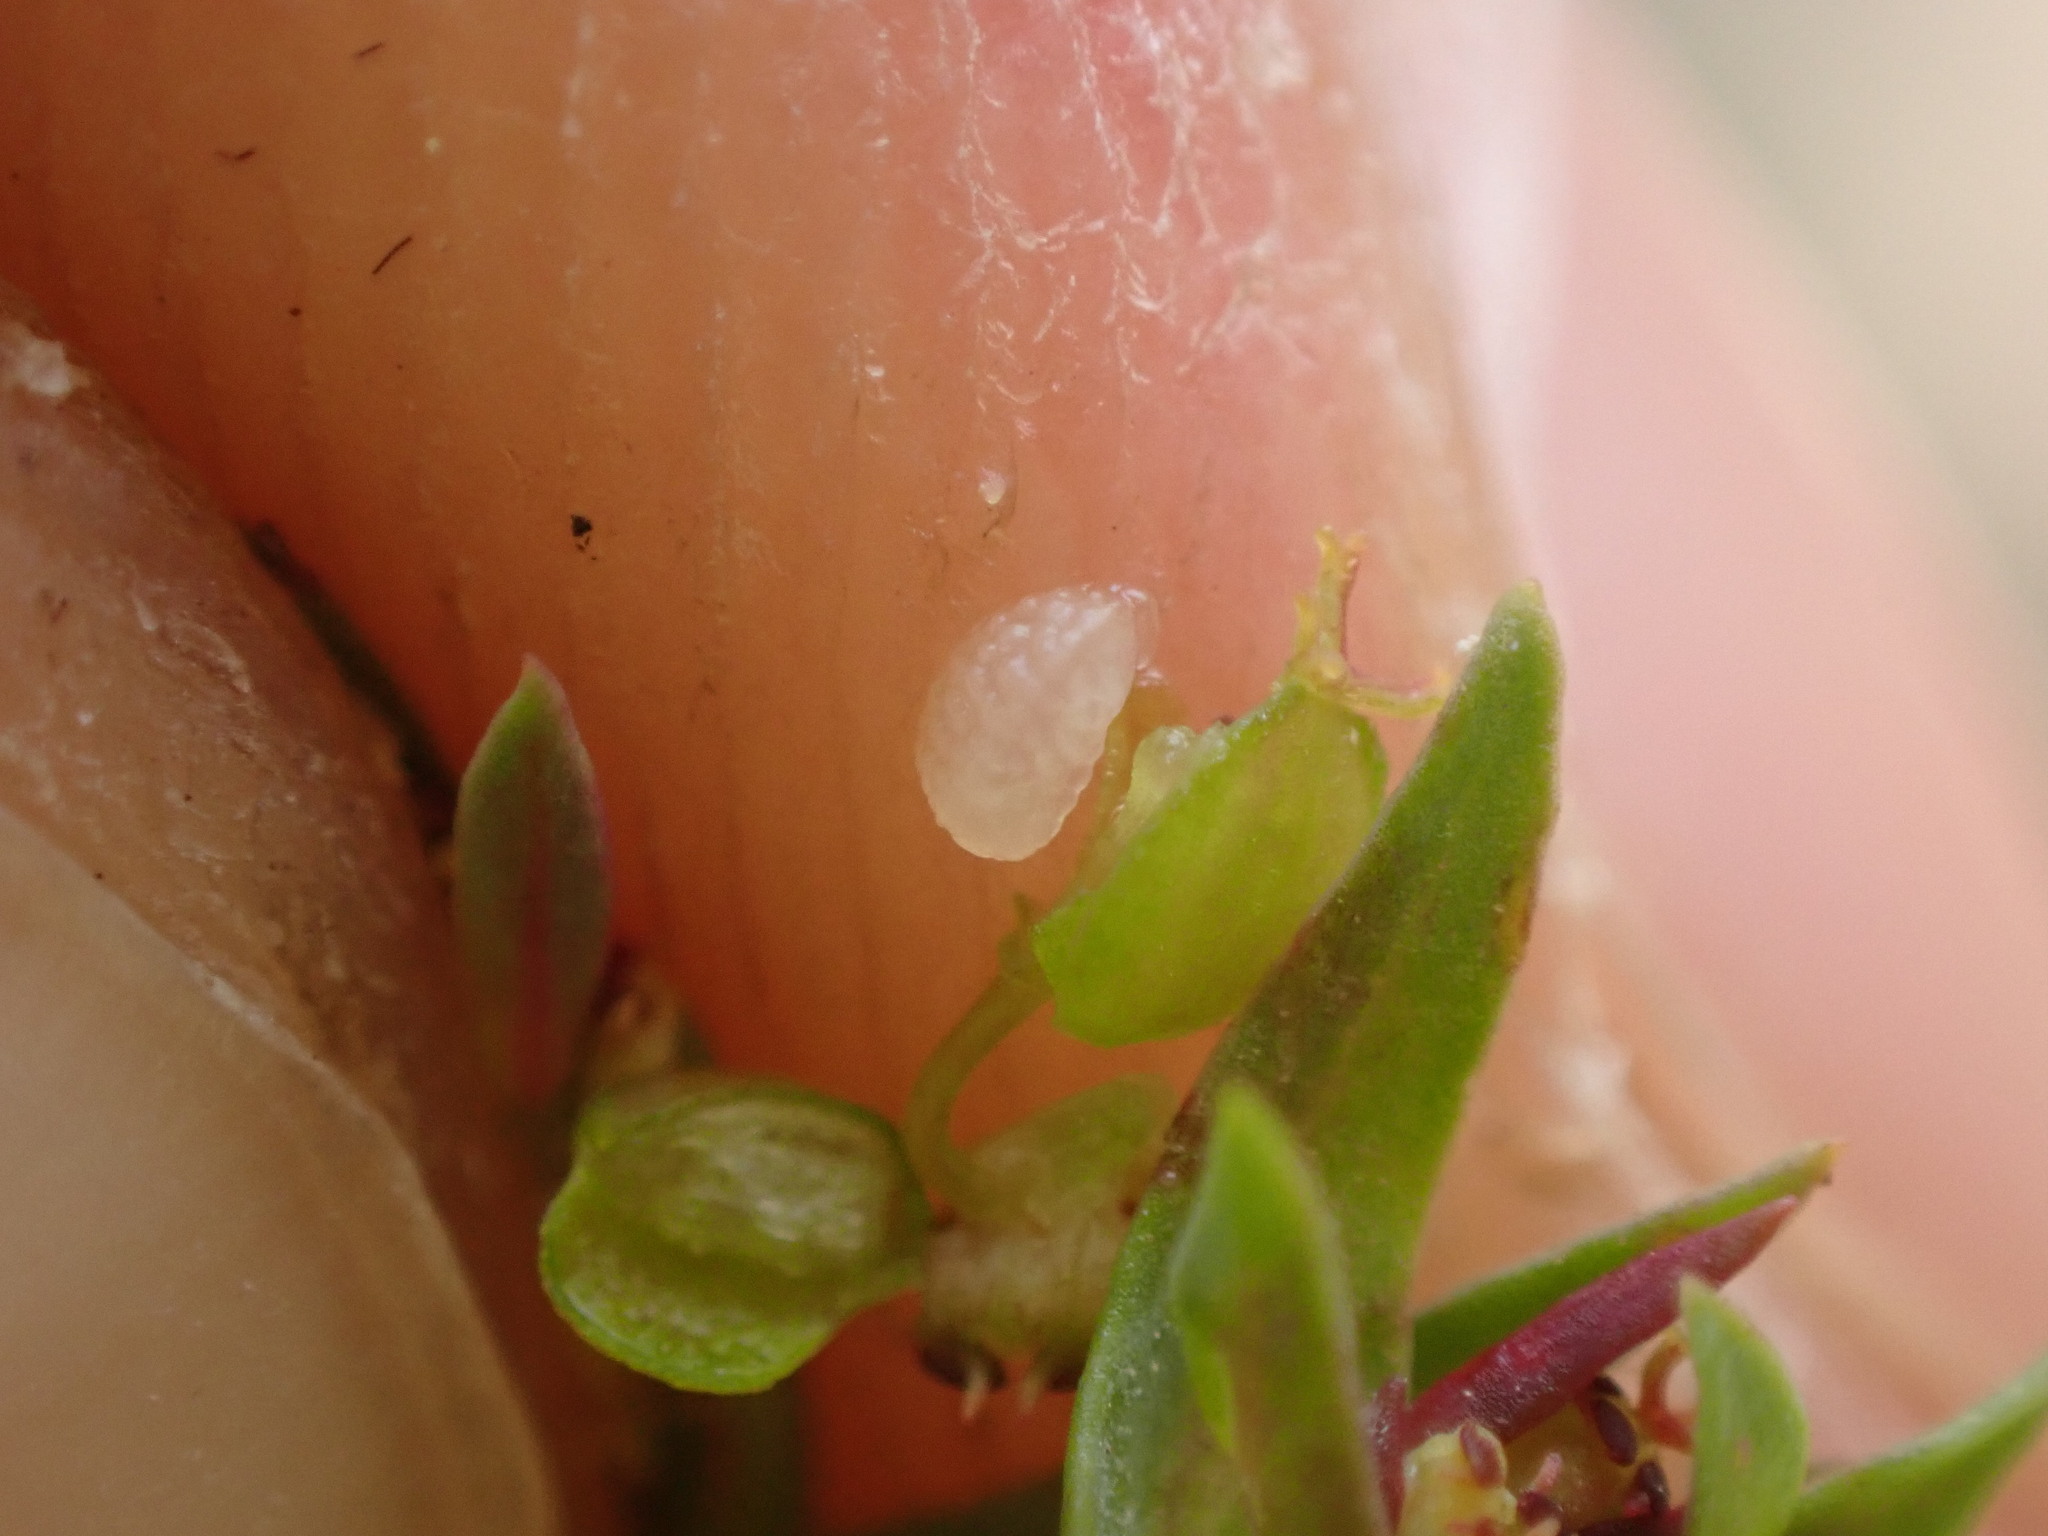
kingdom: Plantae
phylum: Tracheophyta
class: Magnoliopsida
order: Malpighiales
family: Euphorbiaceae
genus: Euphorbia
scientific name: Euphorbia exigua
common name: Dwarf spurge
